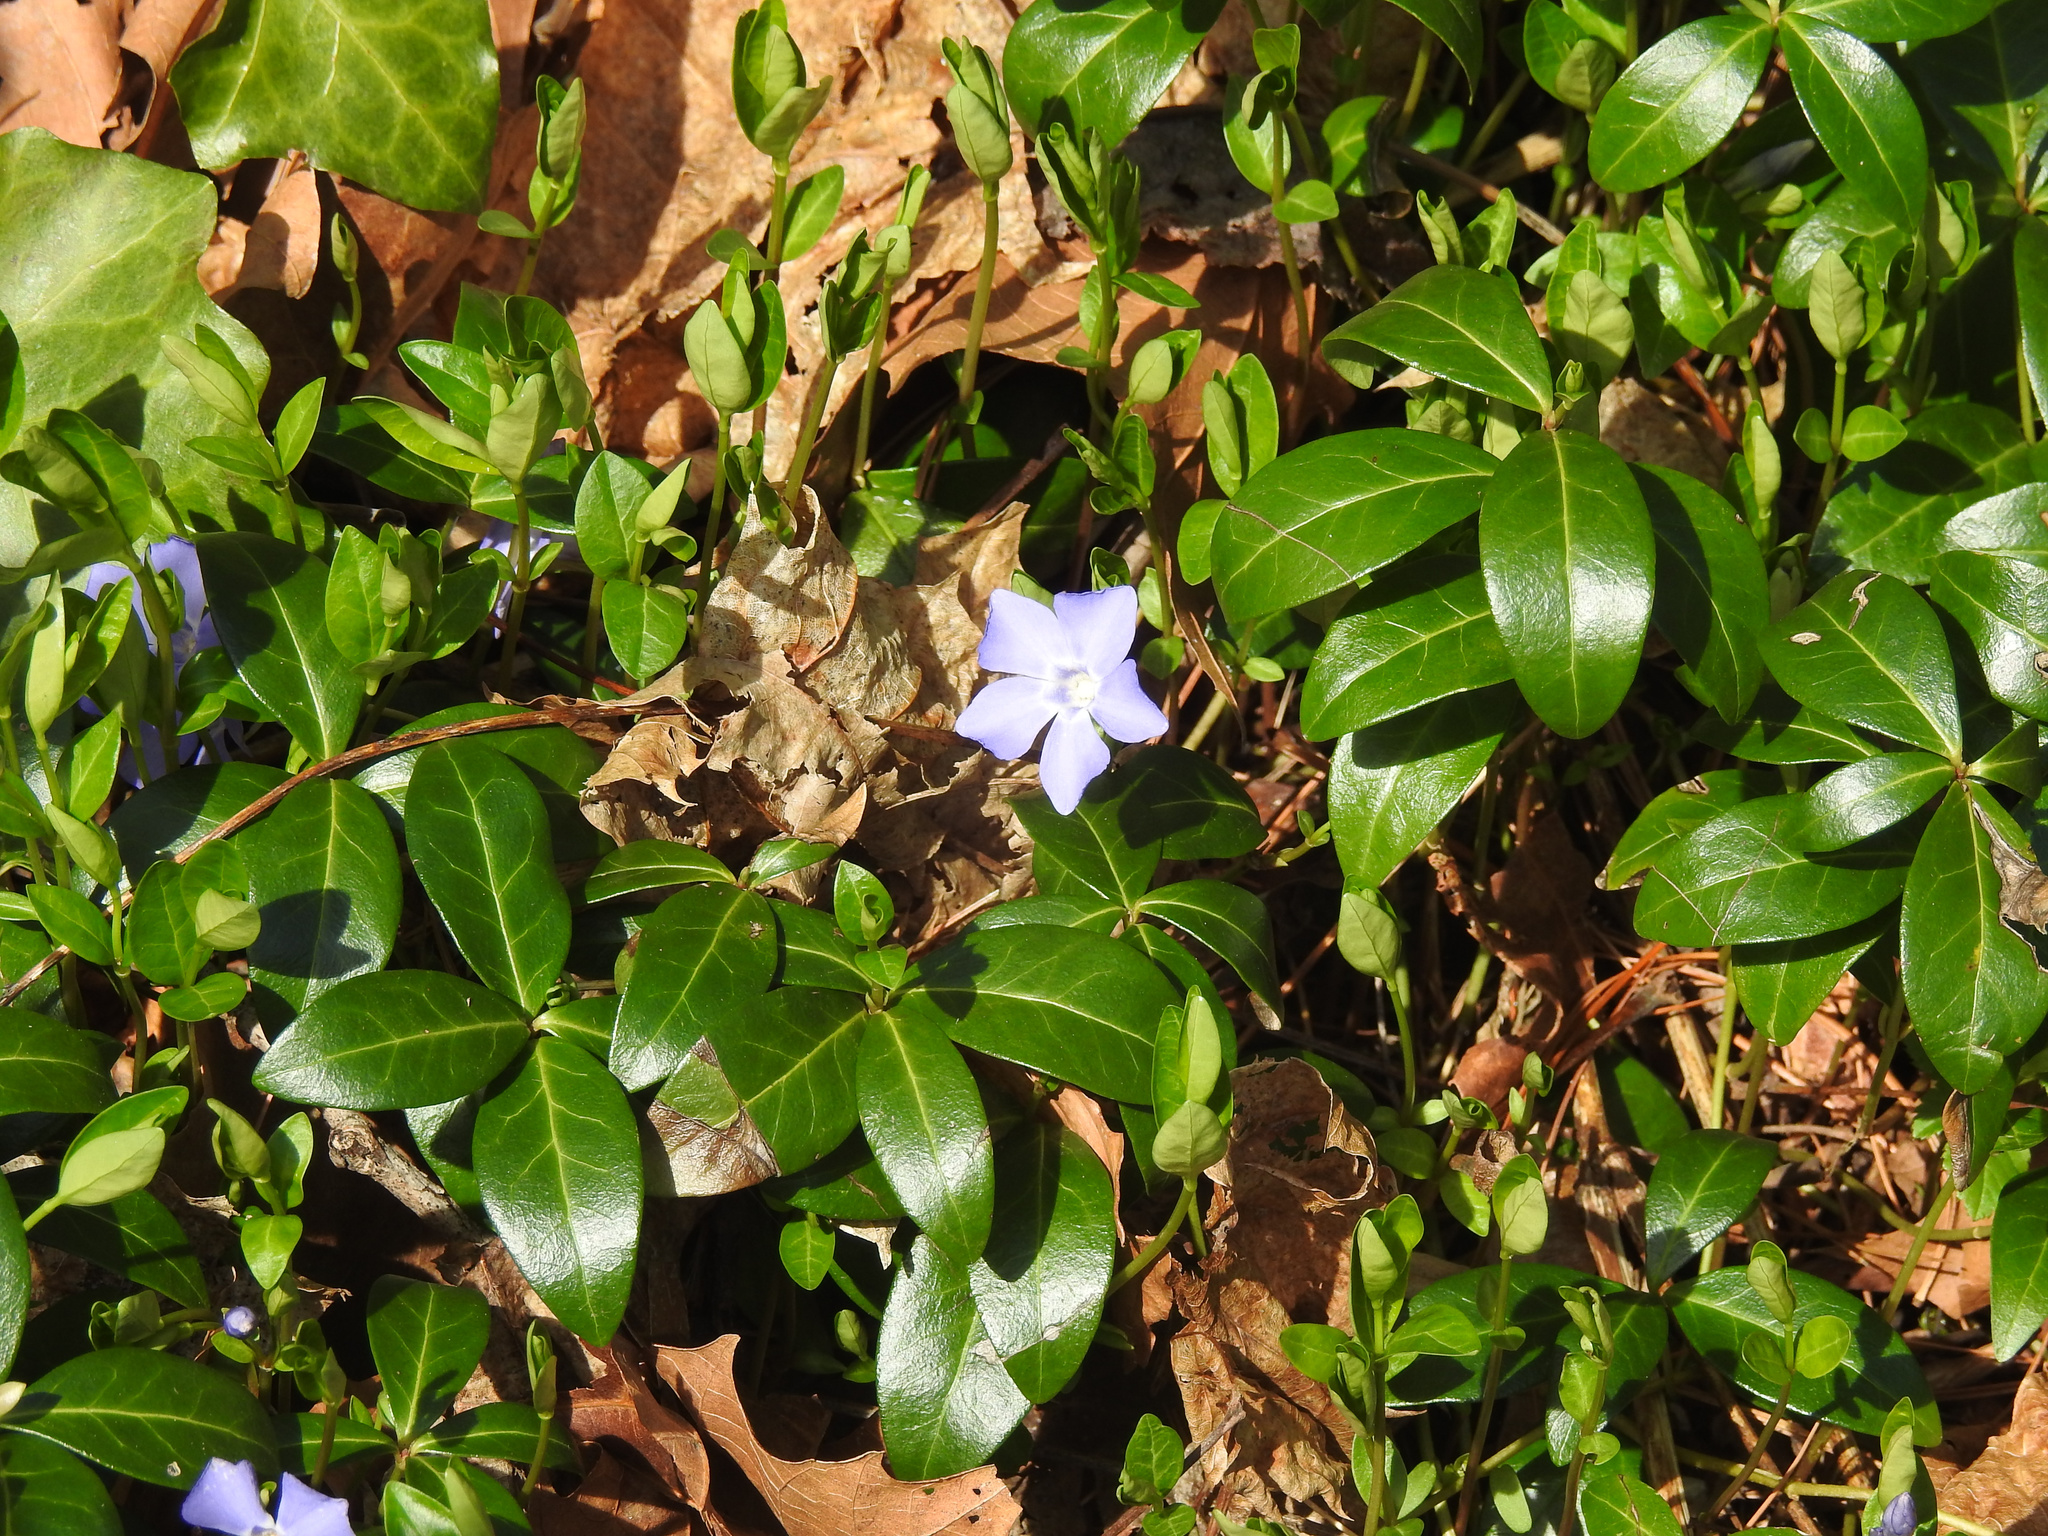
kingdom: Plantae
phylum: Tracheophyta
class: Magnoliopsida
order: Gentianales
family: Apocynaceae
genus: Vinca
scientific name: Vinca minor
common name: Lesser periwinkle
